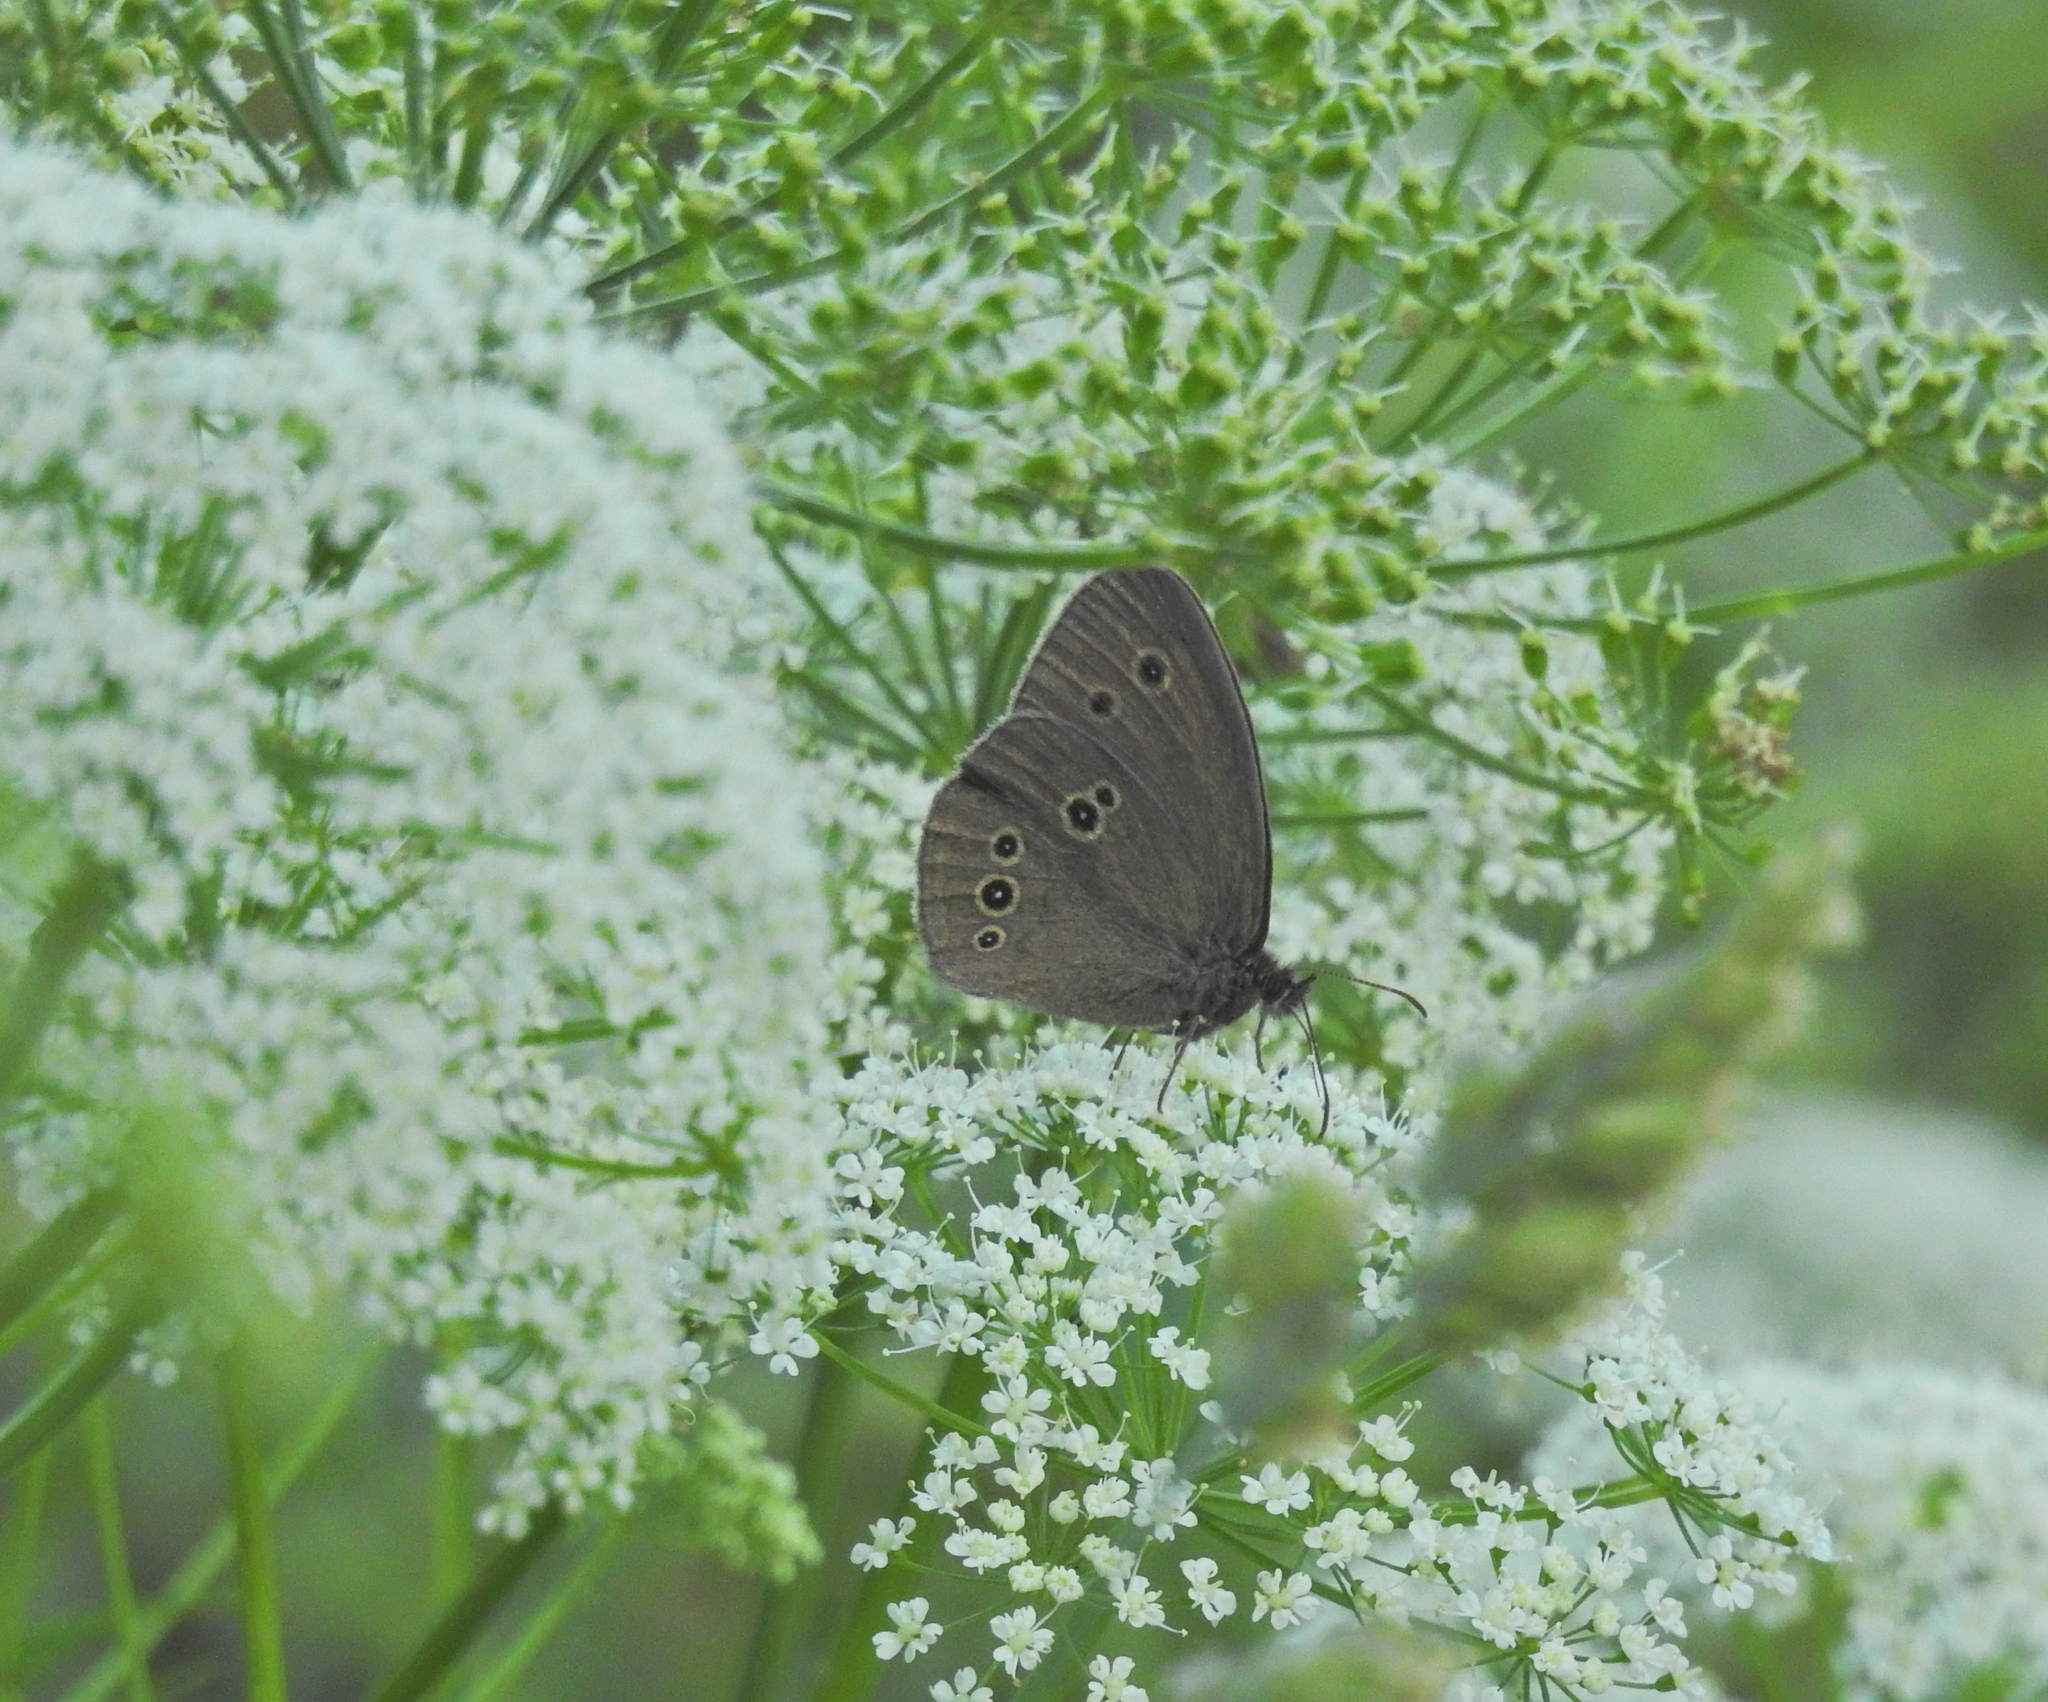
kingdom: Animalia
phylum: Arthropoda
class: Insecta
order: Lepidoptera
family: Nymphalidae
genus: Aphantopus
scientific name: Aphantopus hyperantus
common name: Ringlet
